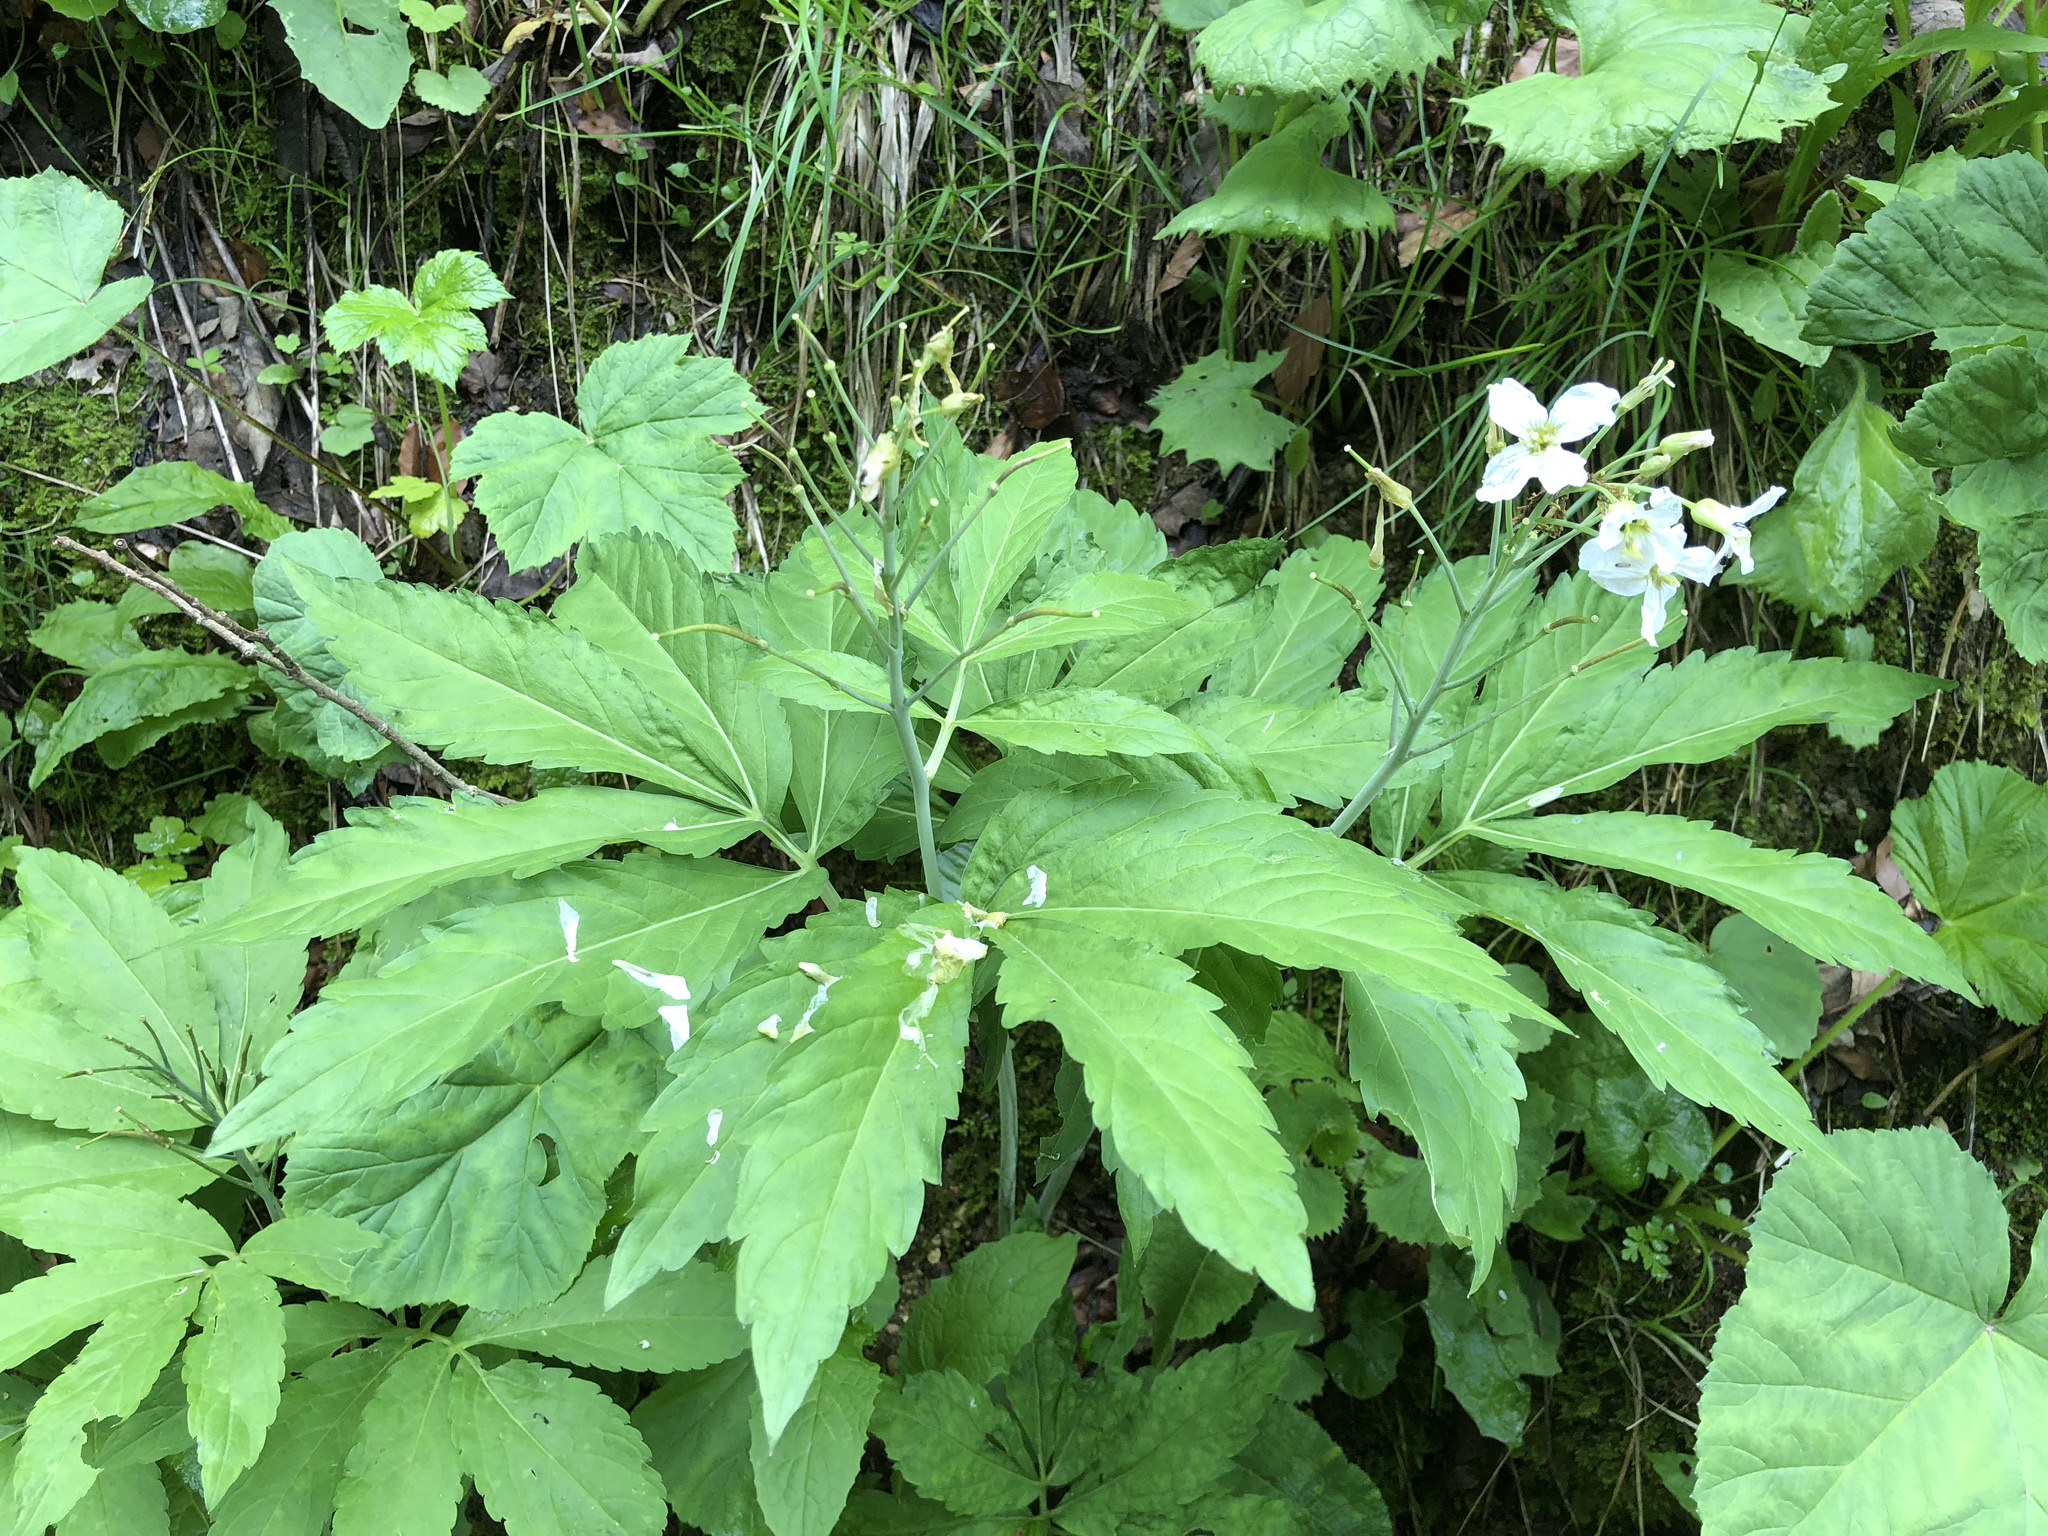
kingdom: Plantae
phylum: Tracheophyta
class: Magnoliopsida
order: Brassicales
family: Brassicaceae
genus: Cardamine
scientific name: Cardamine heptaphylla
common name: Pinnate coralroot
